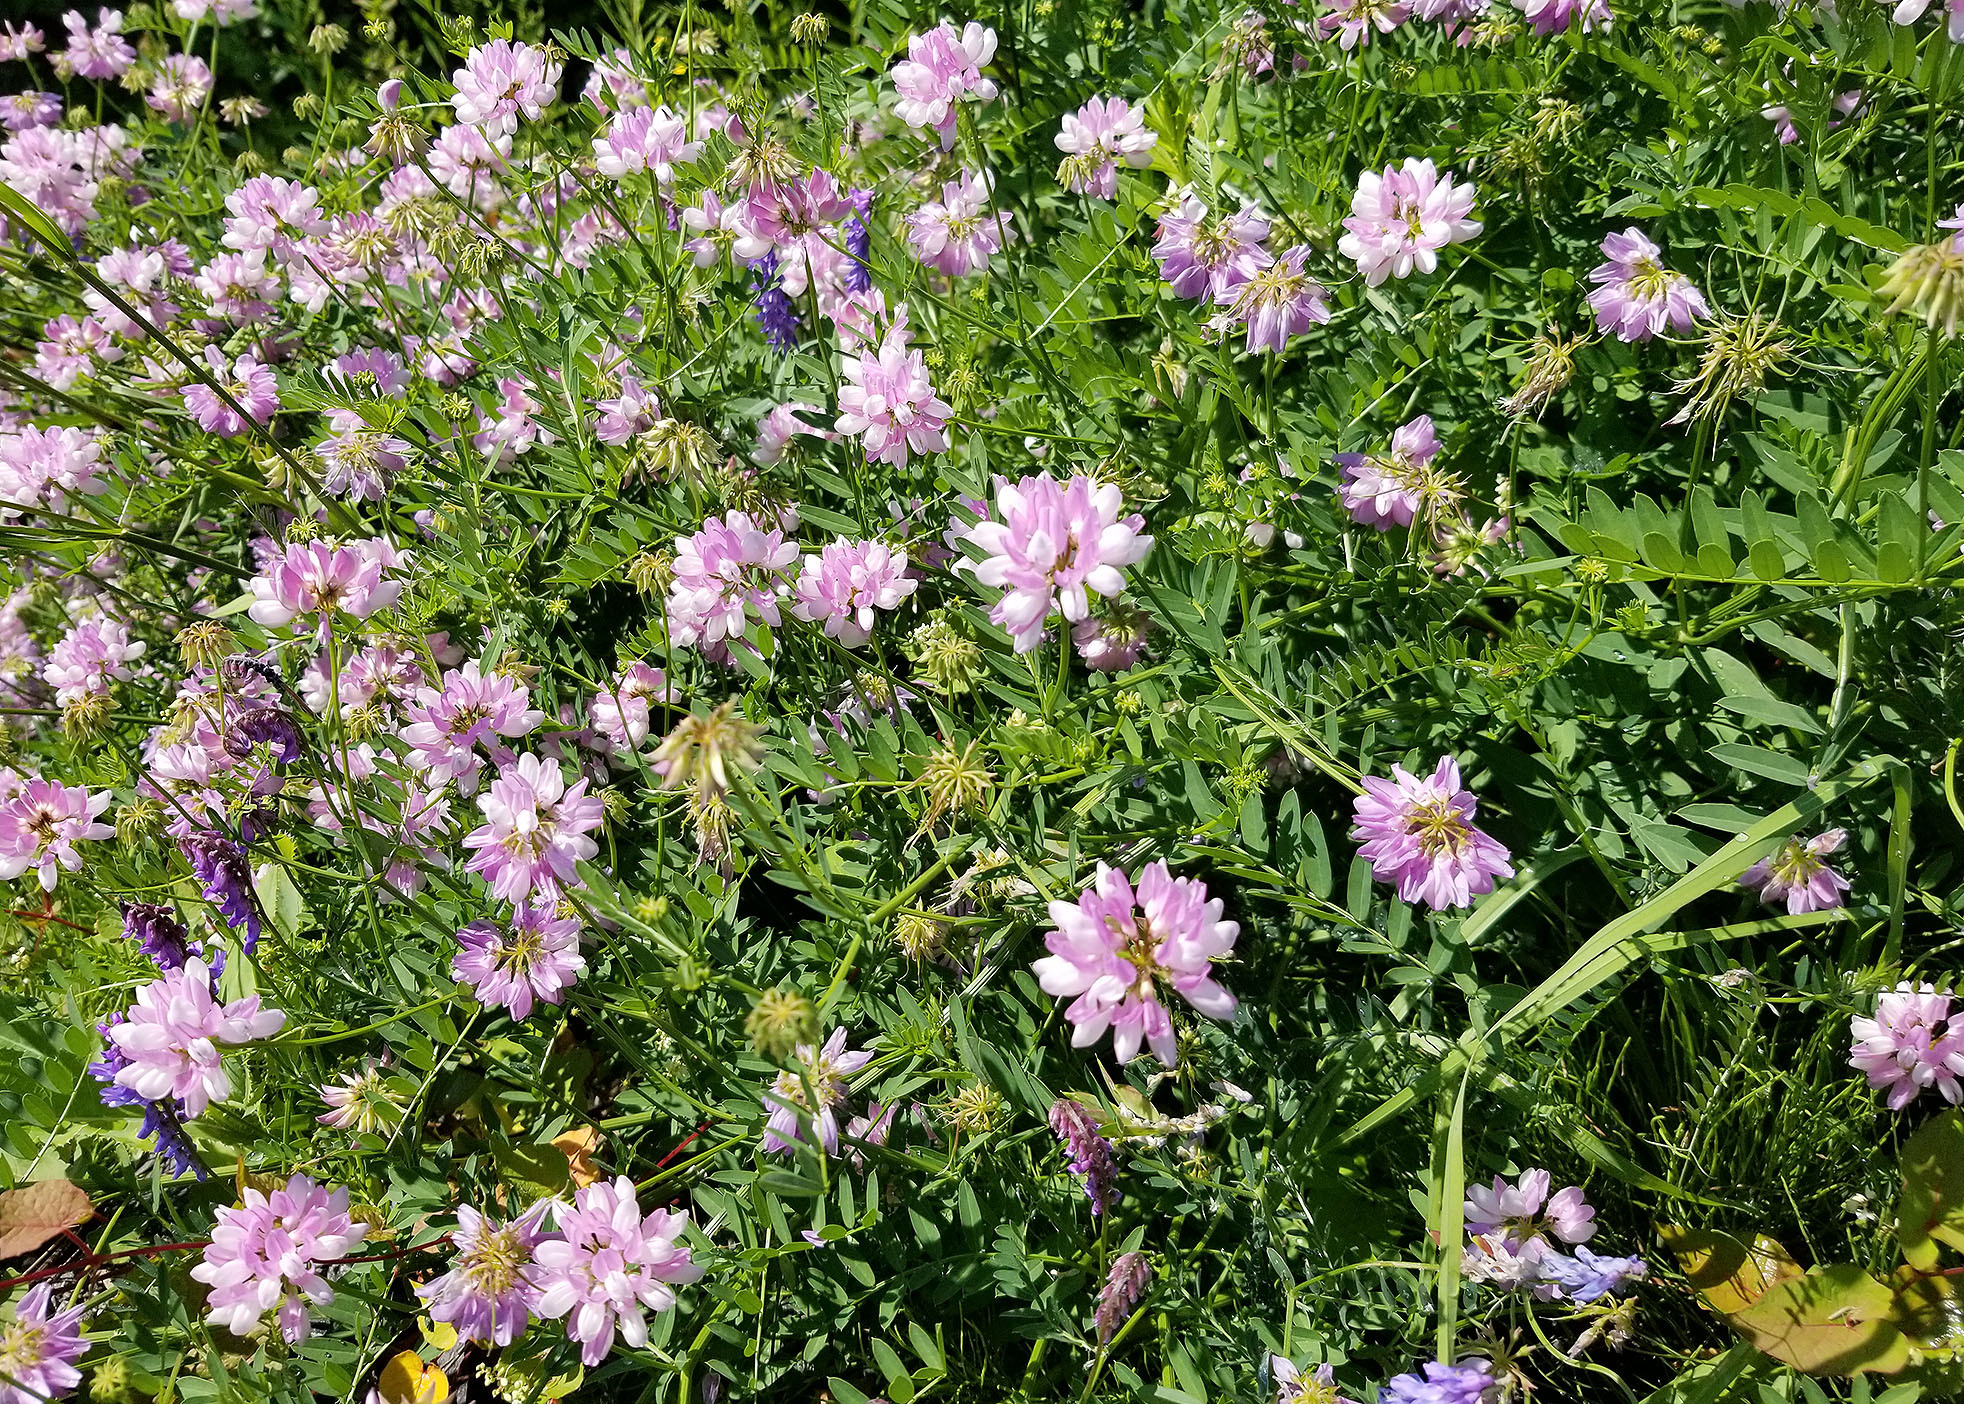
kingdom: Plantae
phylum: Tracheophyta
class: Magnoliopsida
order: Fabales
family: Fabaceae
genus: Coronilla
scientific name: Coronilla varia
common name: Crownvetch
